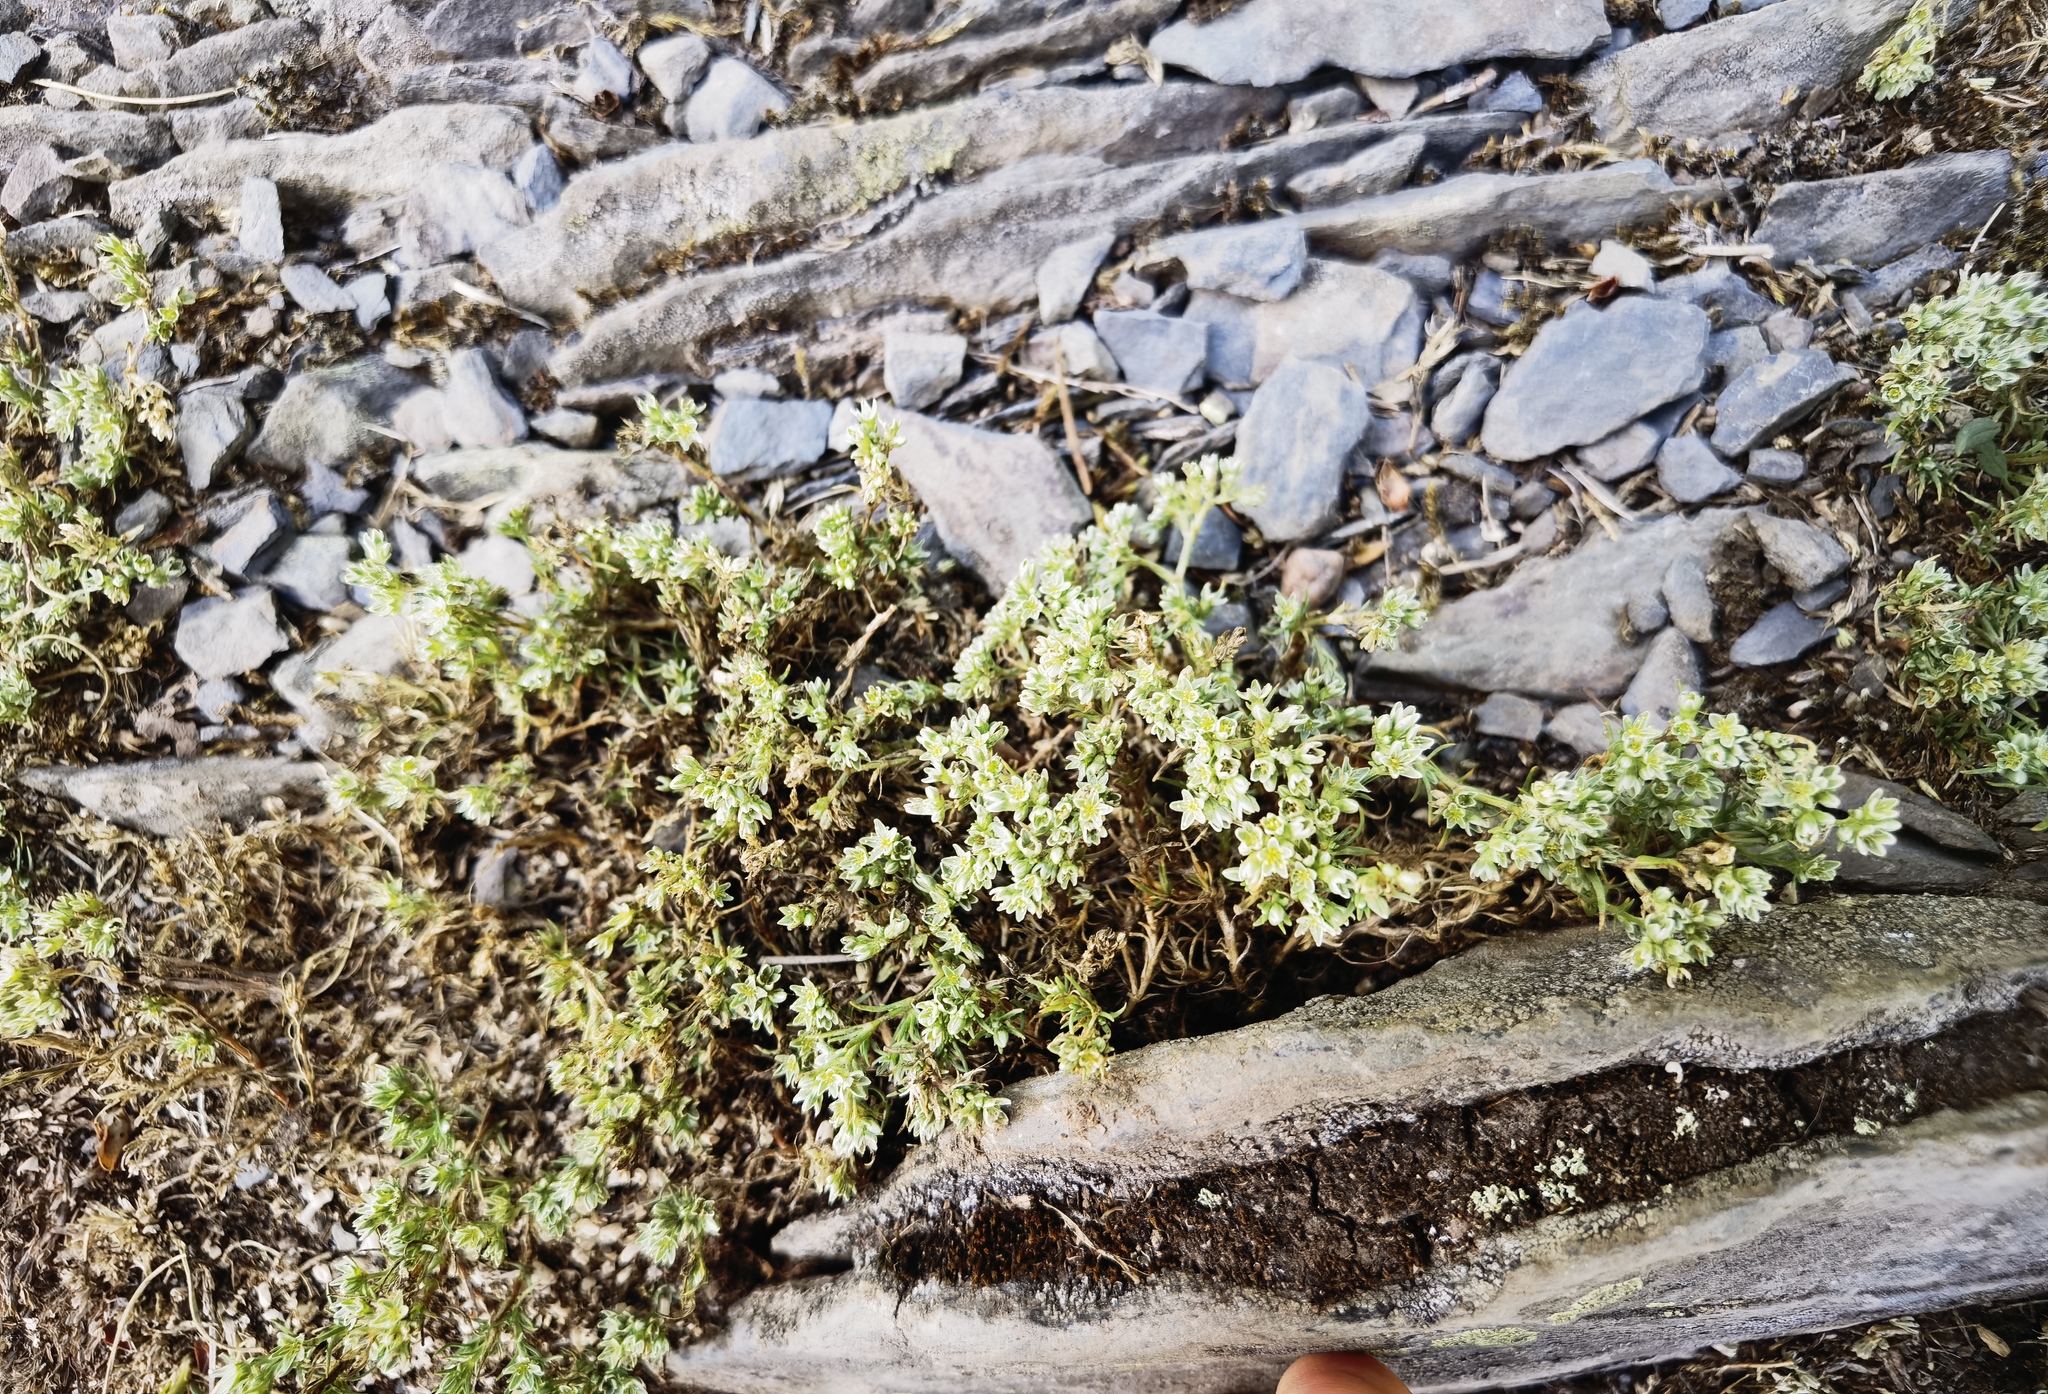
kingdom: Plantae
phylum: Tracheophyta
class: Magnoliopsida
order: Caryophyllales
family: Caryophyllaceae
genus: Scleranthus
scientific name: Scleranthus perennis
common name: Perennial knawel
